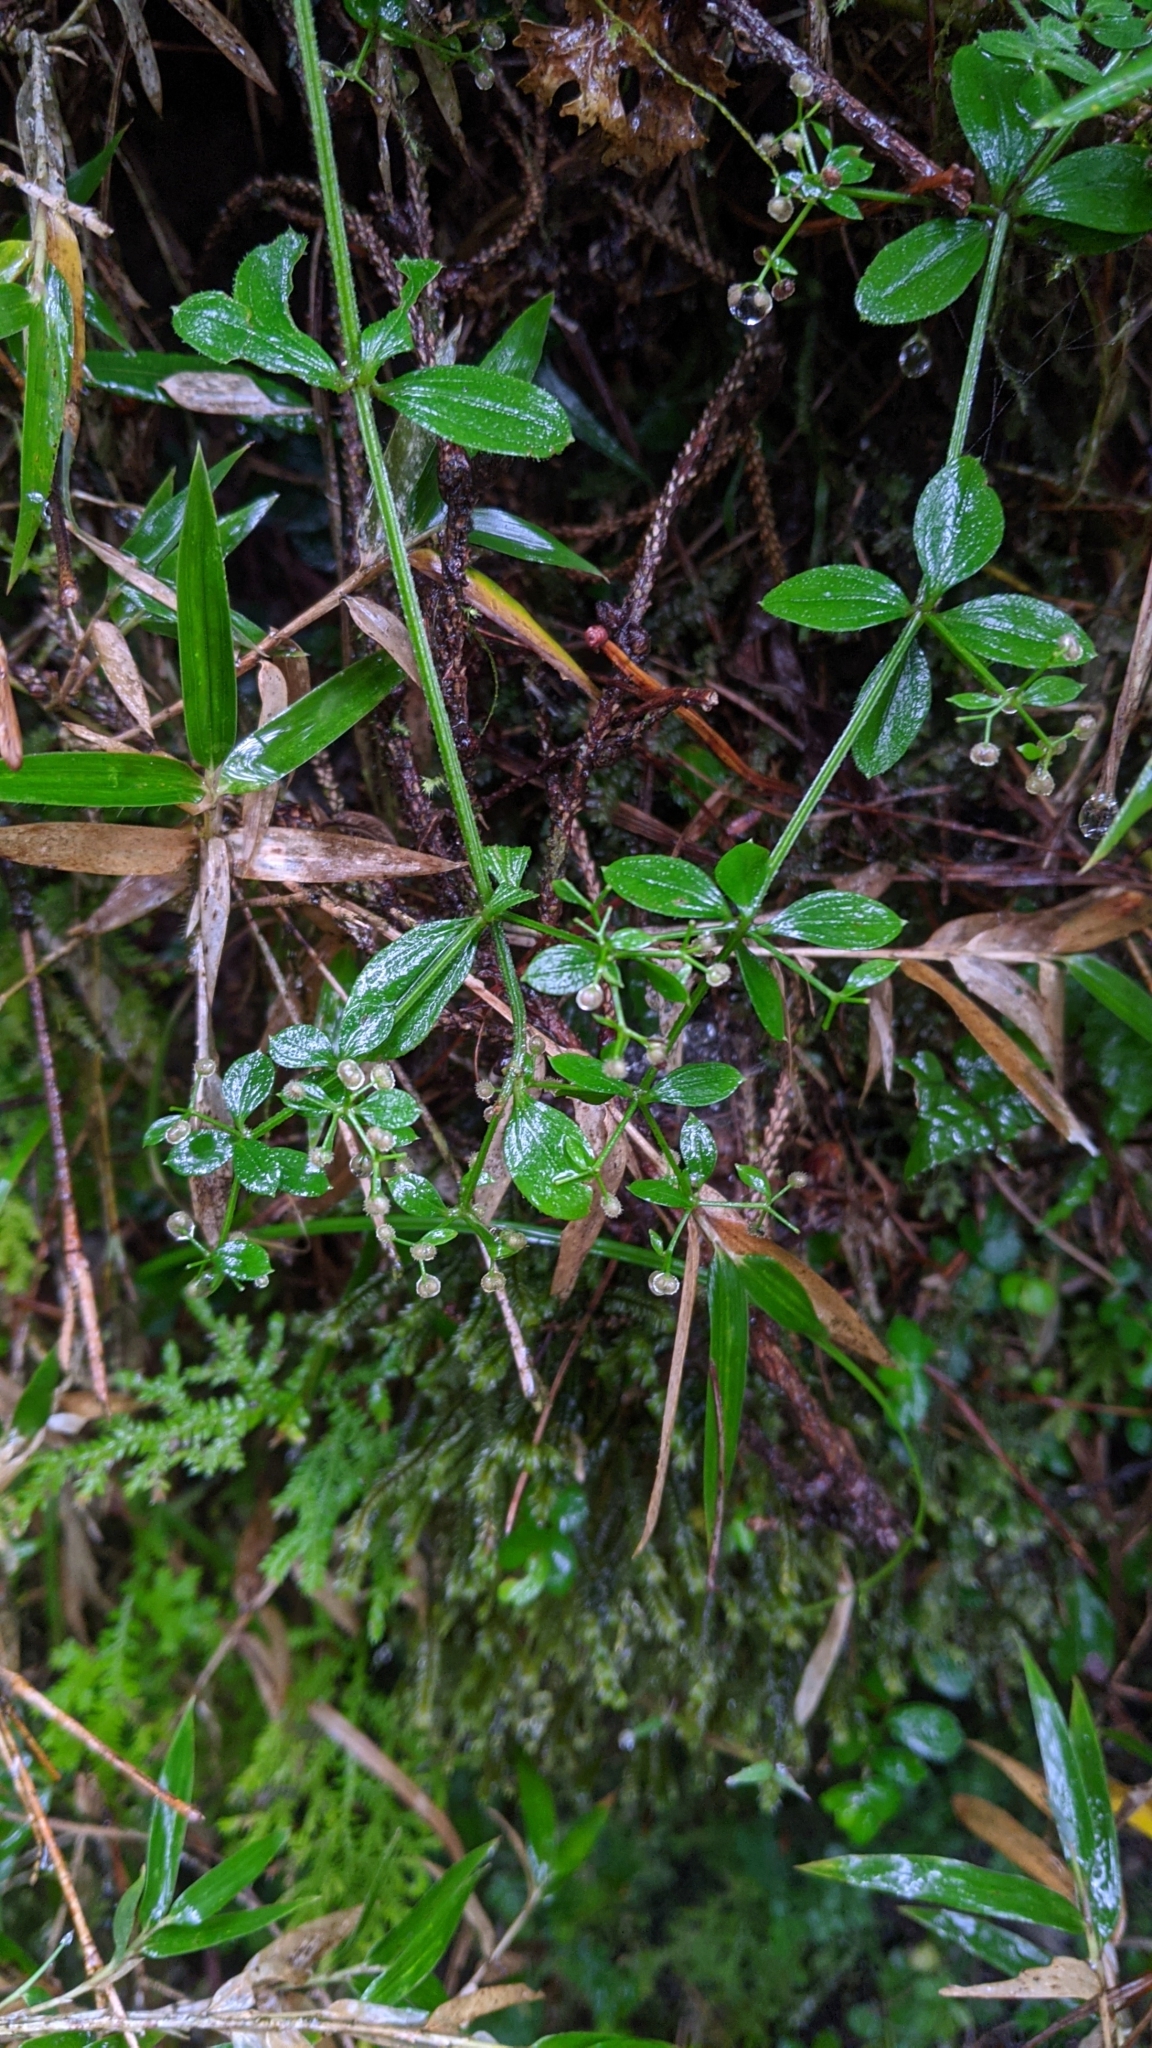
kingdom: Plantae
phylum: Tracheophyta
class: Magnoliopsida
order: Gentianales
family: Rubiaceae
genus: Galium
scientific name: Galium formosense
